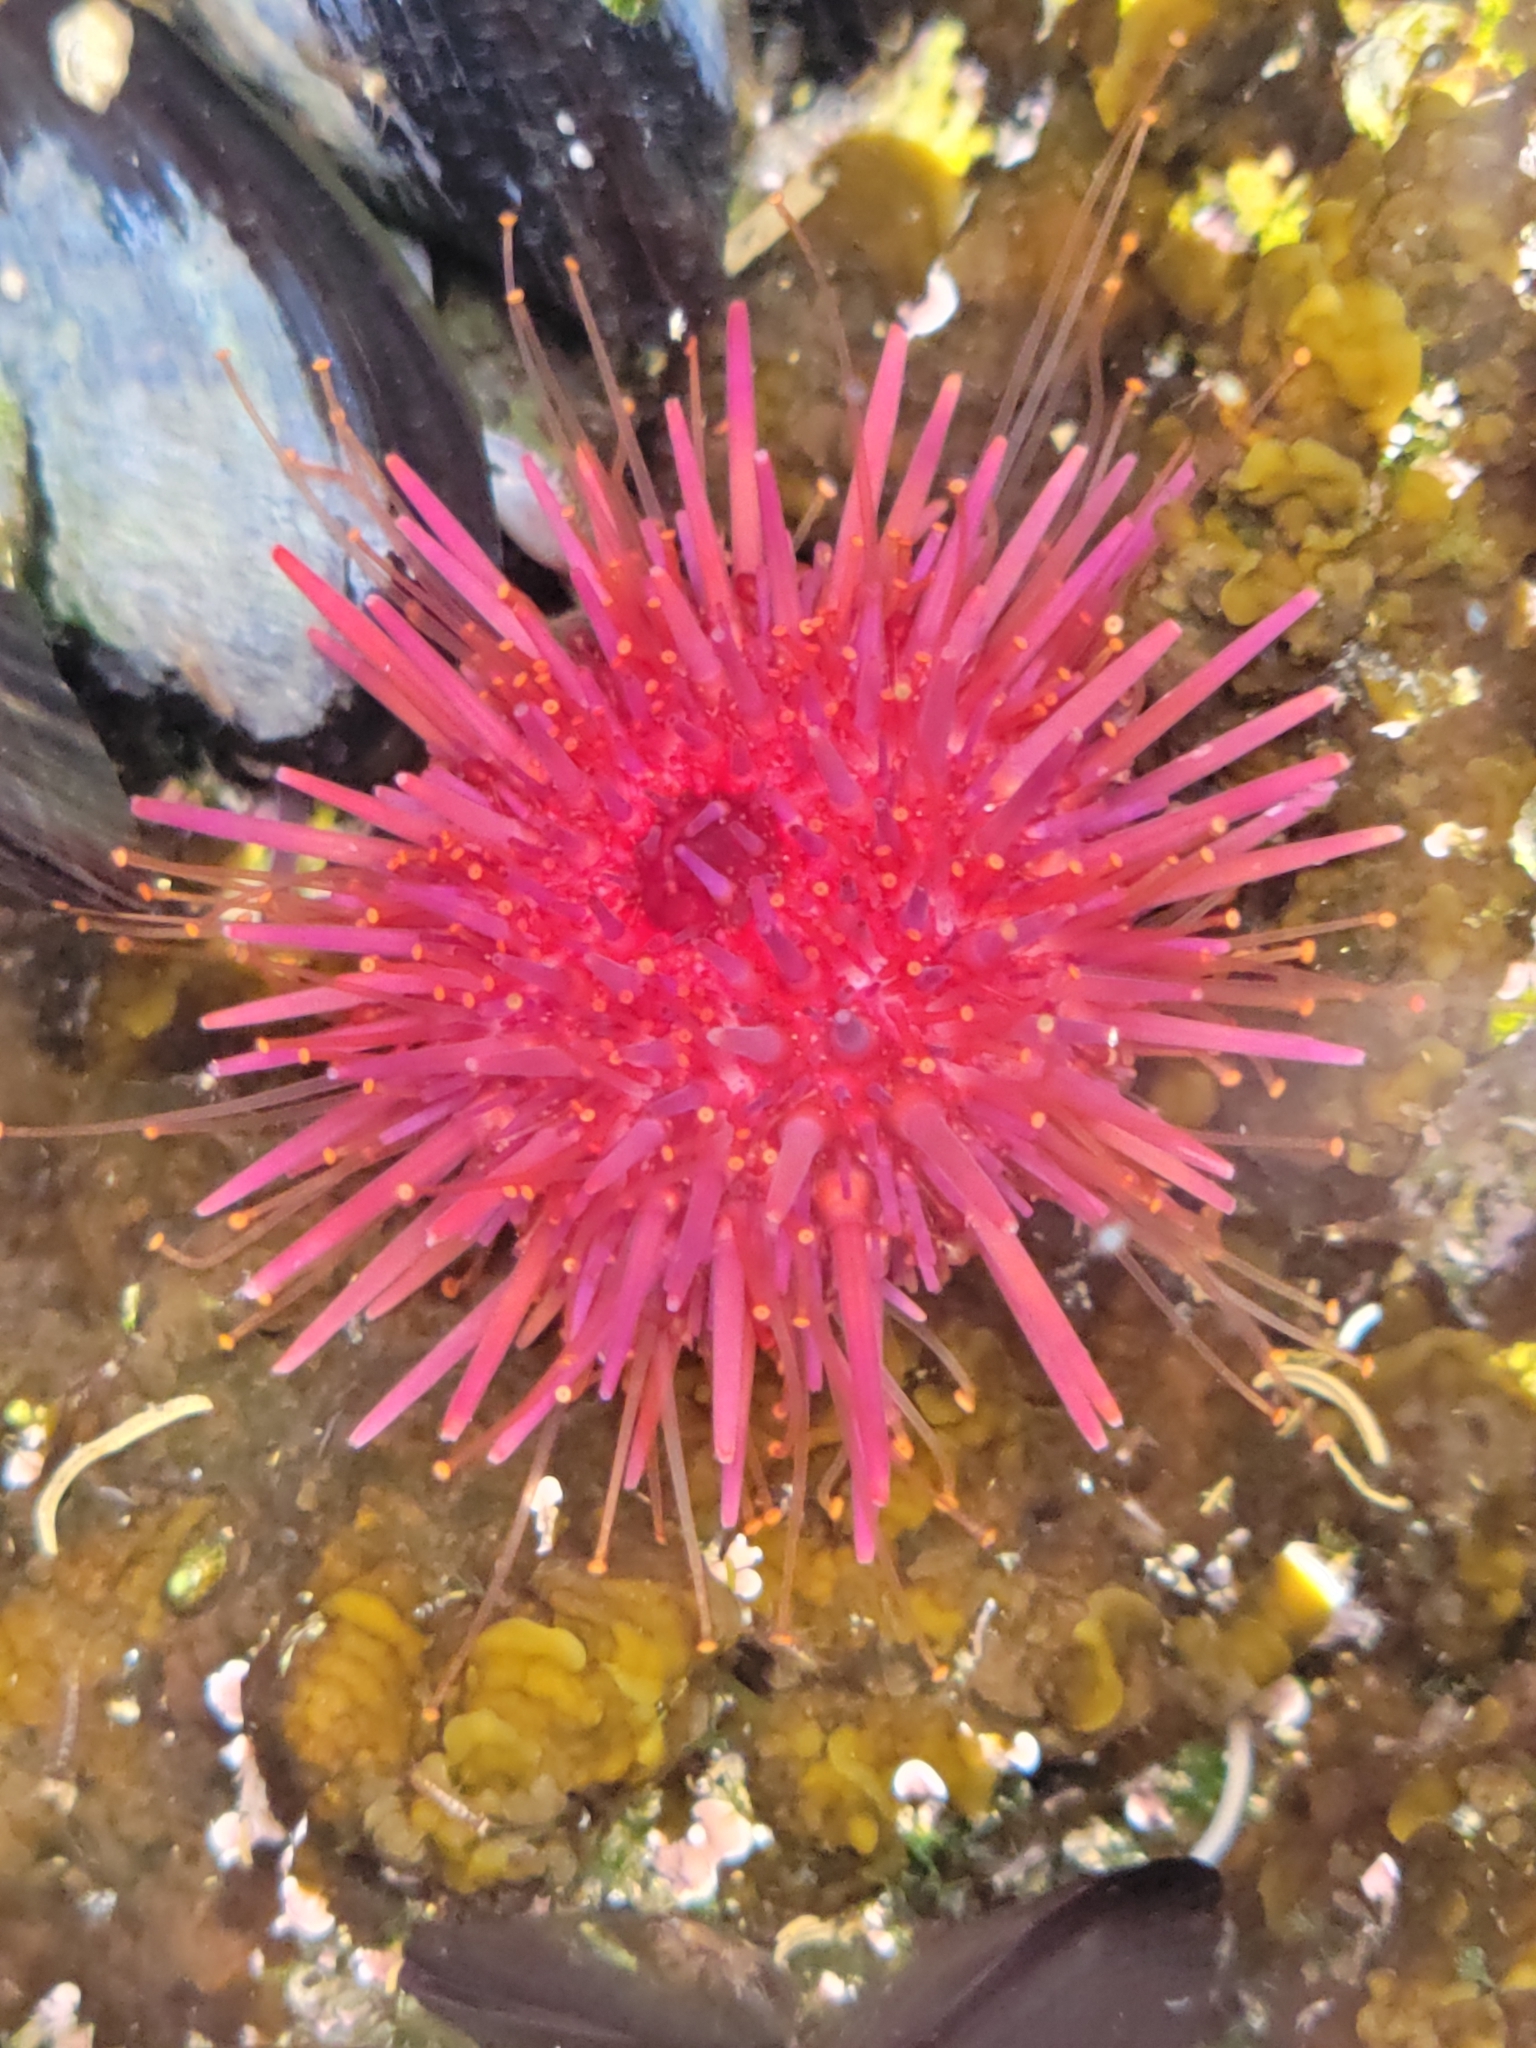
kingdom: Animalia
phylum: Echinodermata
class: Echinoidea
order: Camarodonta
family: Strongylocentrotidae
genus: Mesocentrotus
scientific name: Mesocentrotus franciscanus
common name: Red sea urchin
